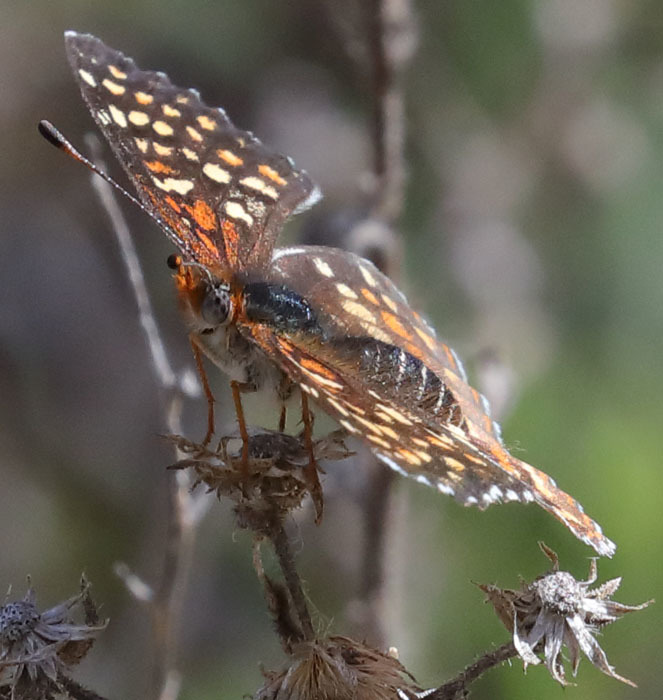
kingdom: Animalia
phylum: Arthropoda
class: Insecta
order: Lepidoptera
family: Nymphalidae
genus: Chlosyne
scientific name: Chlosyne gabbii
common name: Gabb's checkerspot
